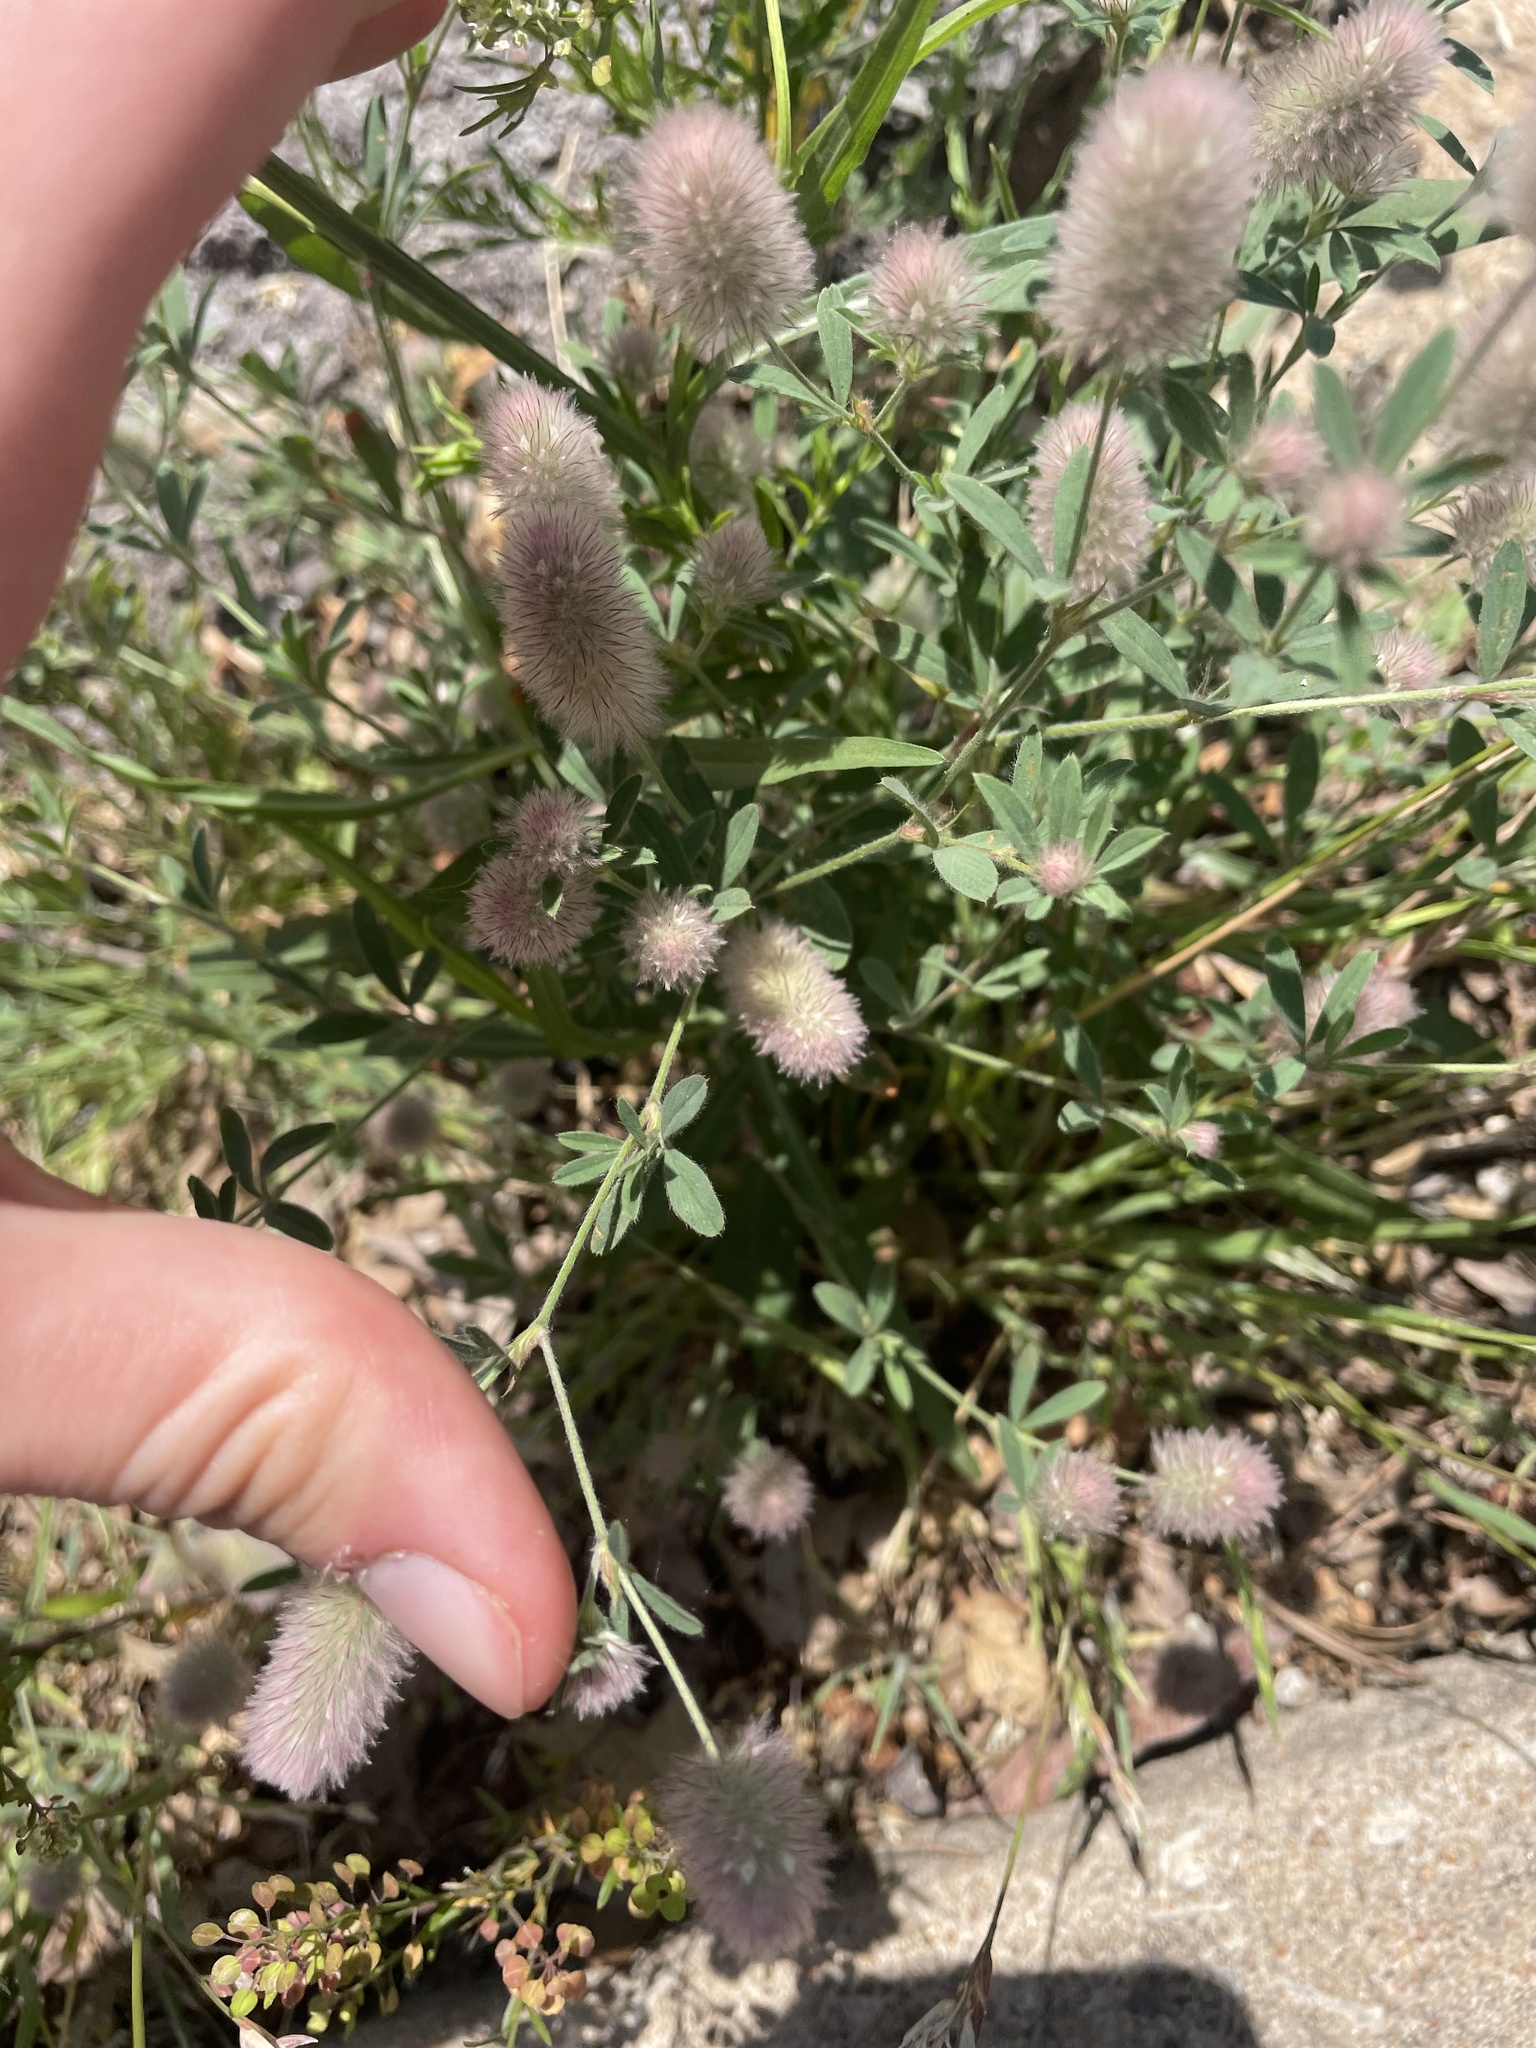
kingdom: Plantae
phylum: Tracheophyta
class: Magnoliopsida
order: Fabales
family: Fabaceae
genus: Trifolium
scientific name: Trifolium arvense
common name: Hare's-foot clover
